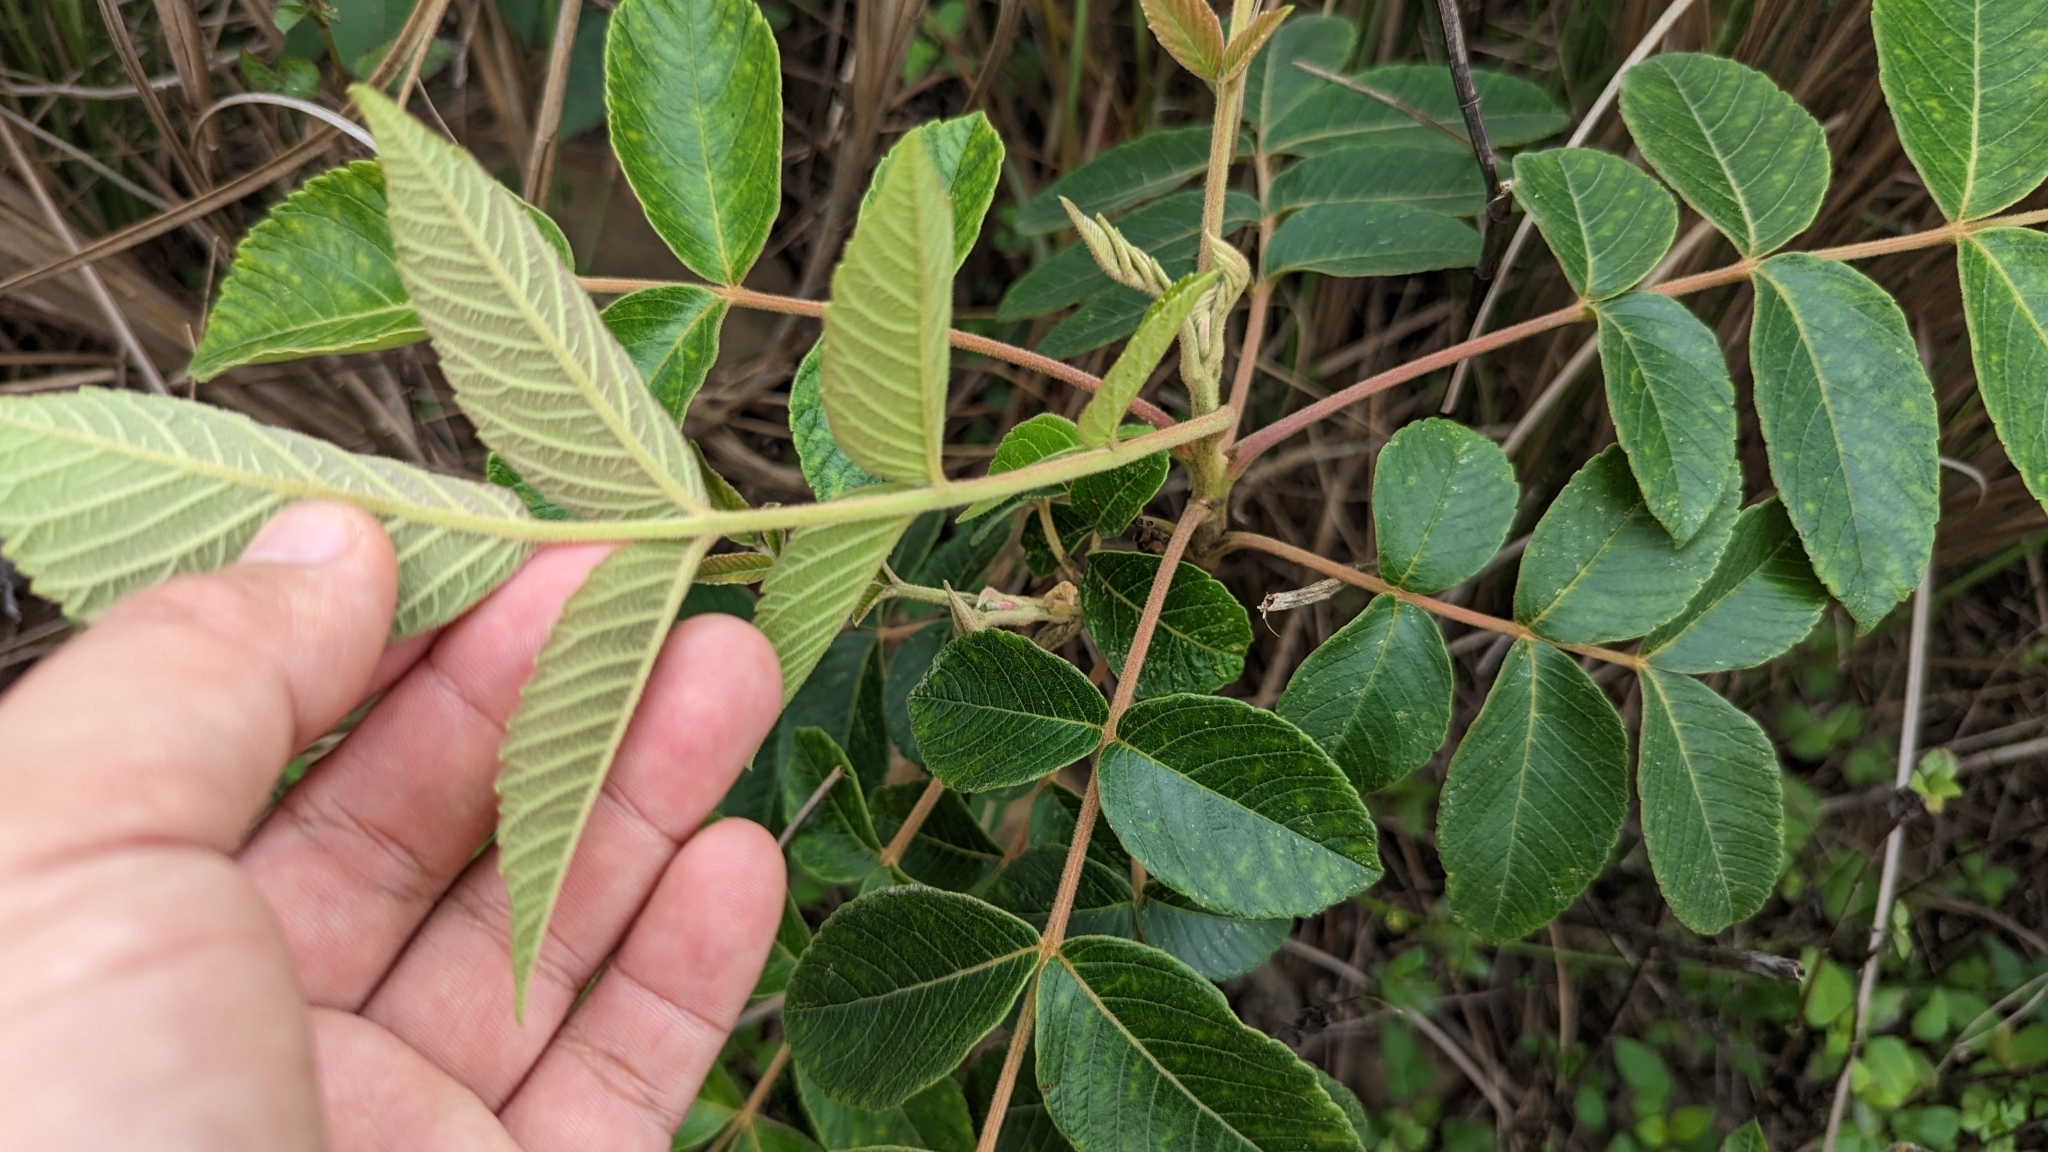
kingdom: Plantae
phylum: Tracheophyta
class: Magnoliopsida
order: Sapindales
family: Anacardiaceae
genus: Rhus
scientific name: Rhus chinensis
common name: Chinese gall
